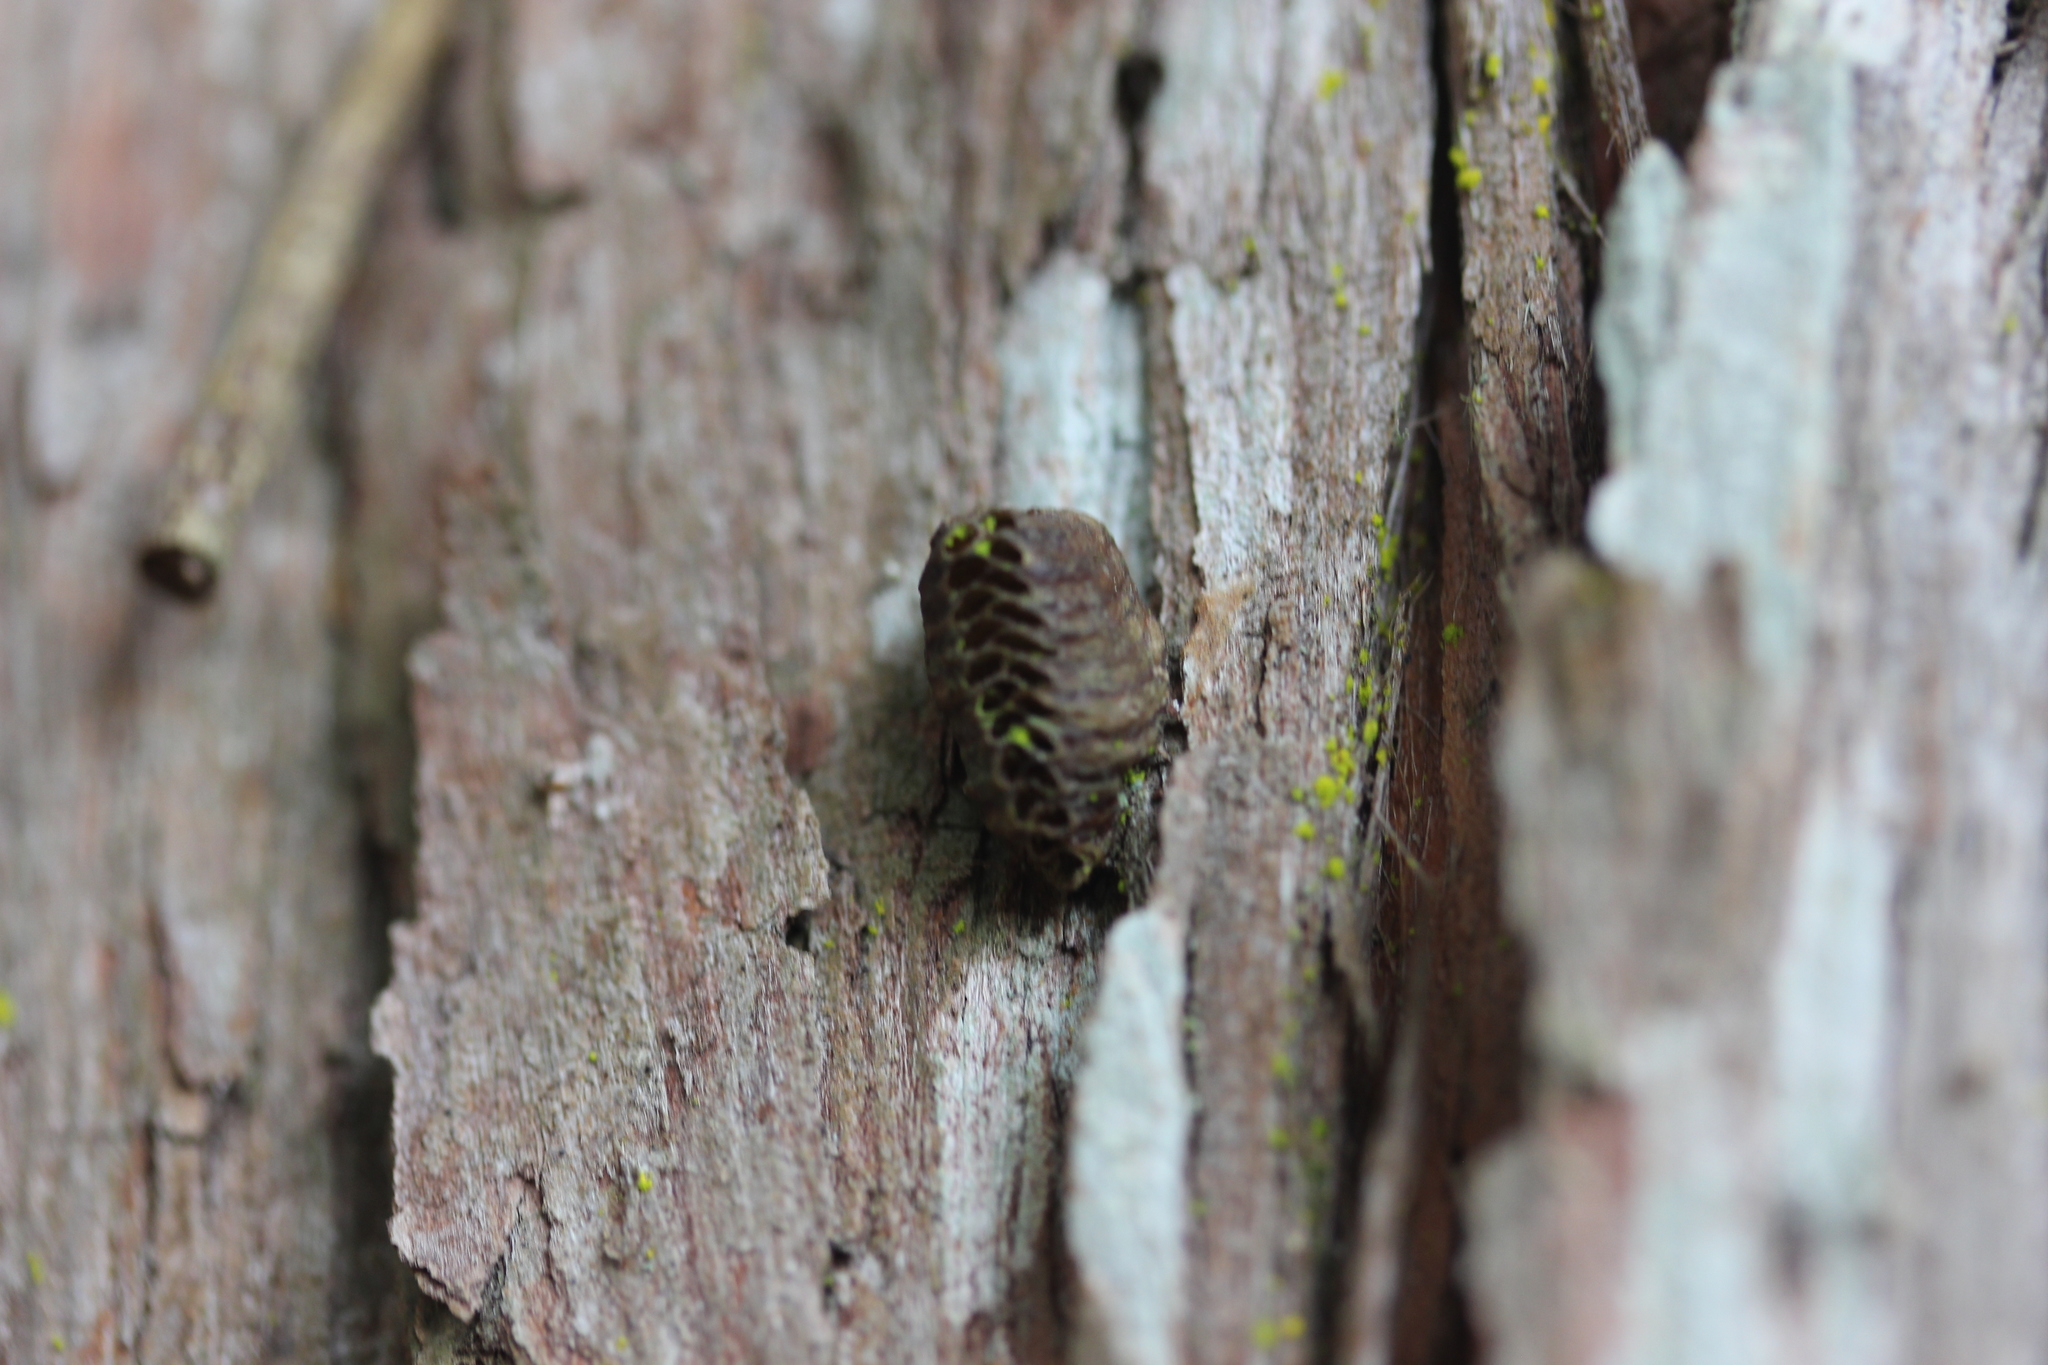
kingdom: Animalia
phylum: Arthropoda
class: Insecta
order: Mantodea
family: Mantidae
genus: Orthodera
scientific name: Orthodera novaezealandiae
